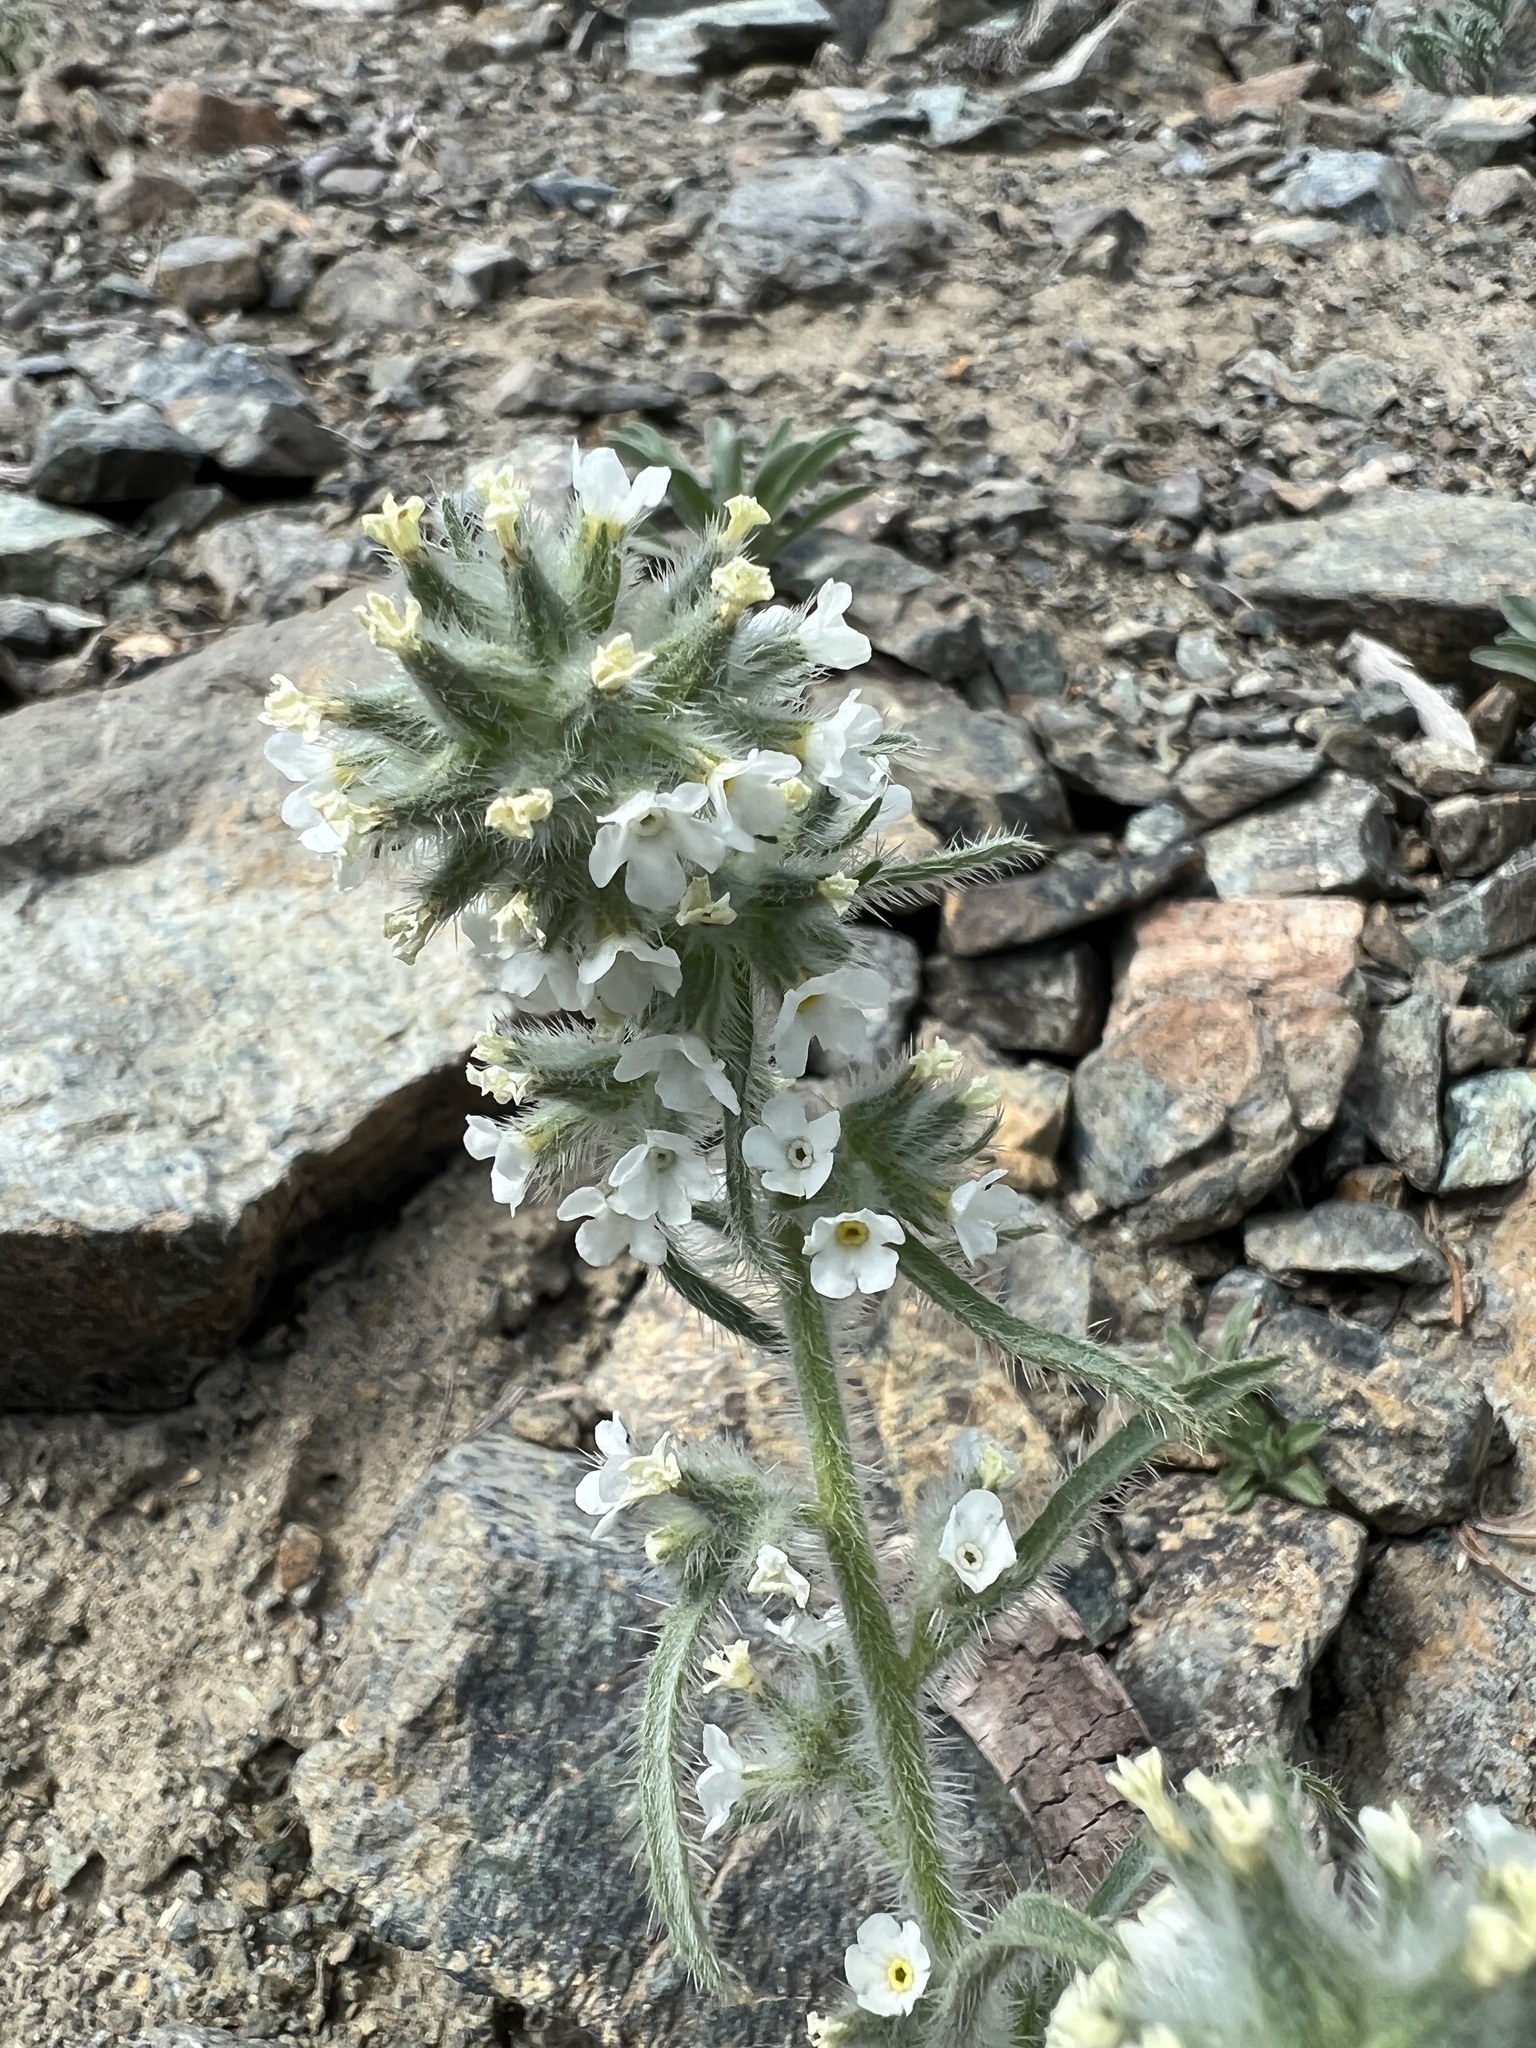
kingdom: Plantae
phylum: Tracheophyta
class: Magnoliopsida
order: Boraginales
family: Boraginaceae
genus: Oreocarya
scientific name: Oreocarya thompsonii
